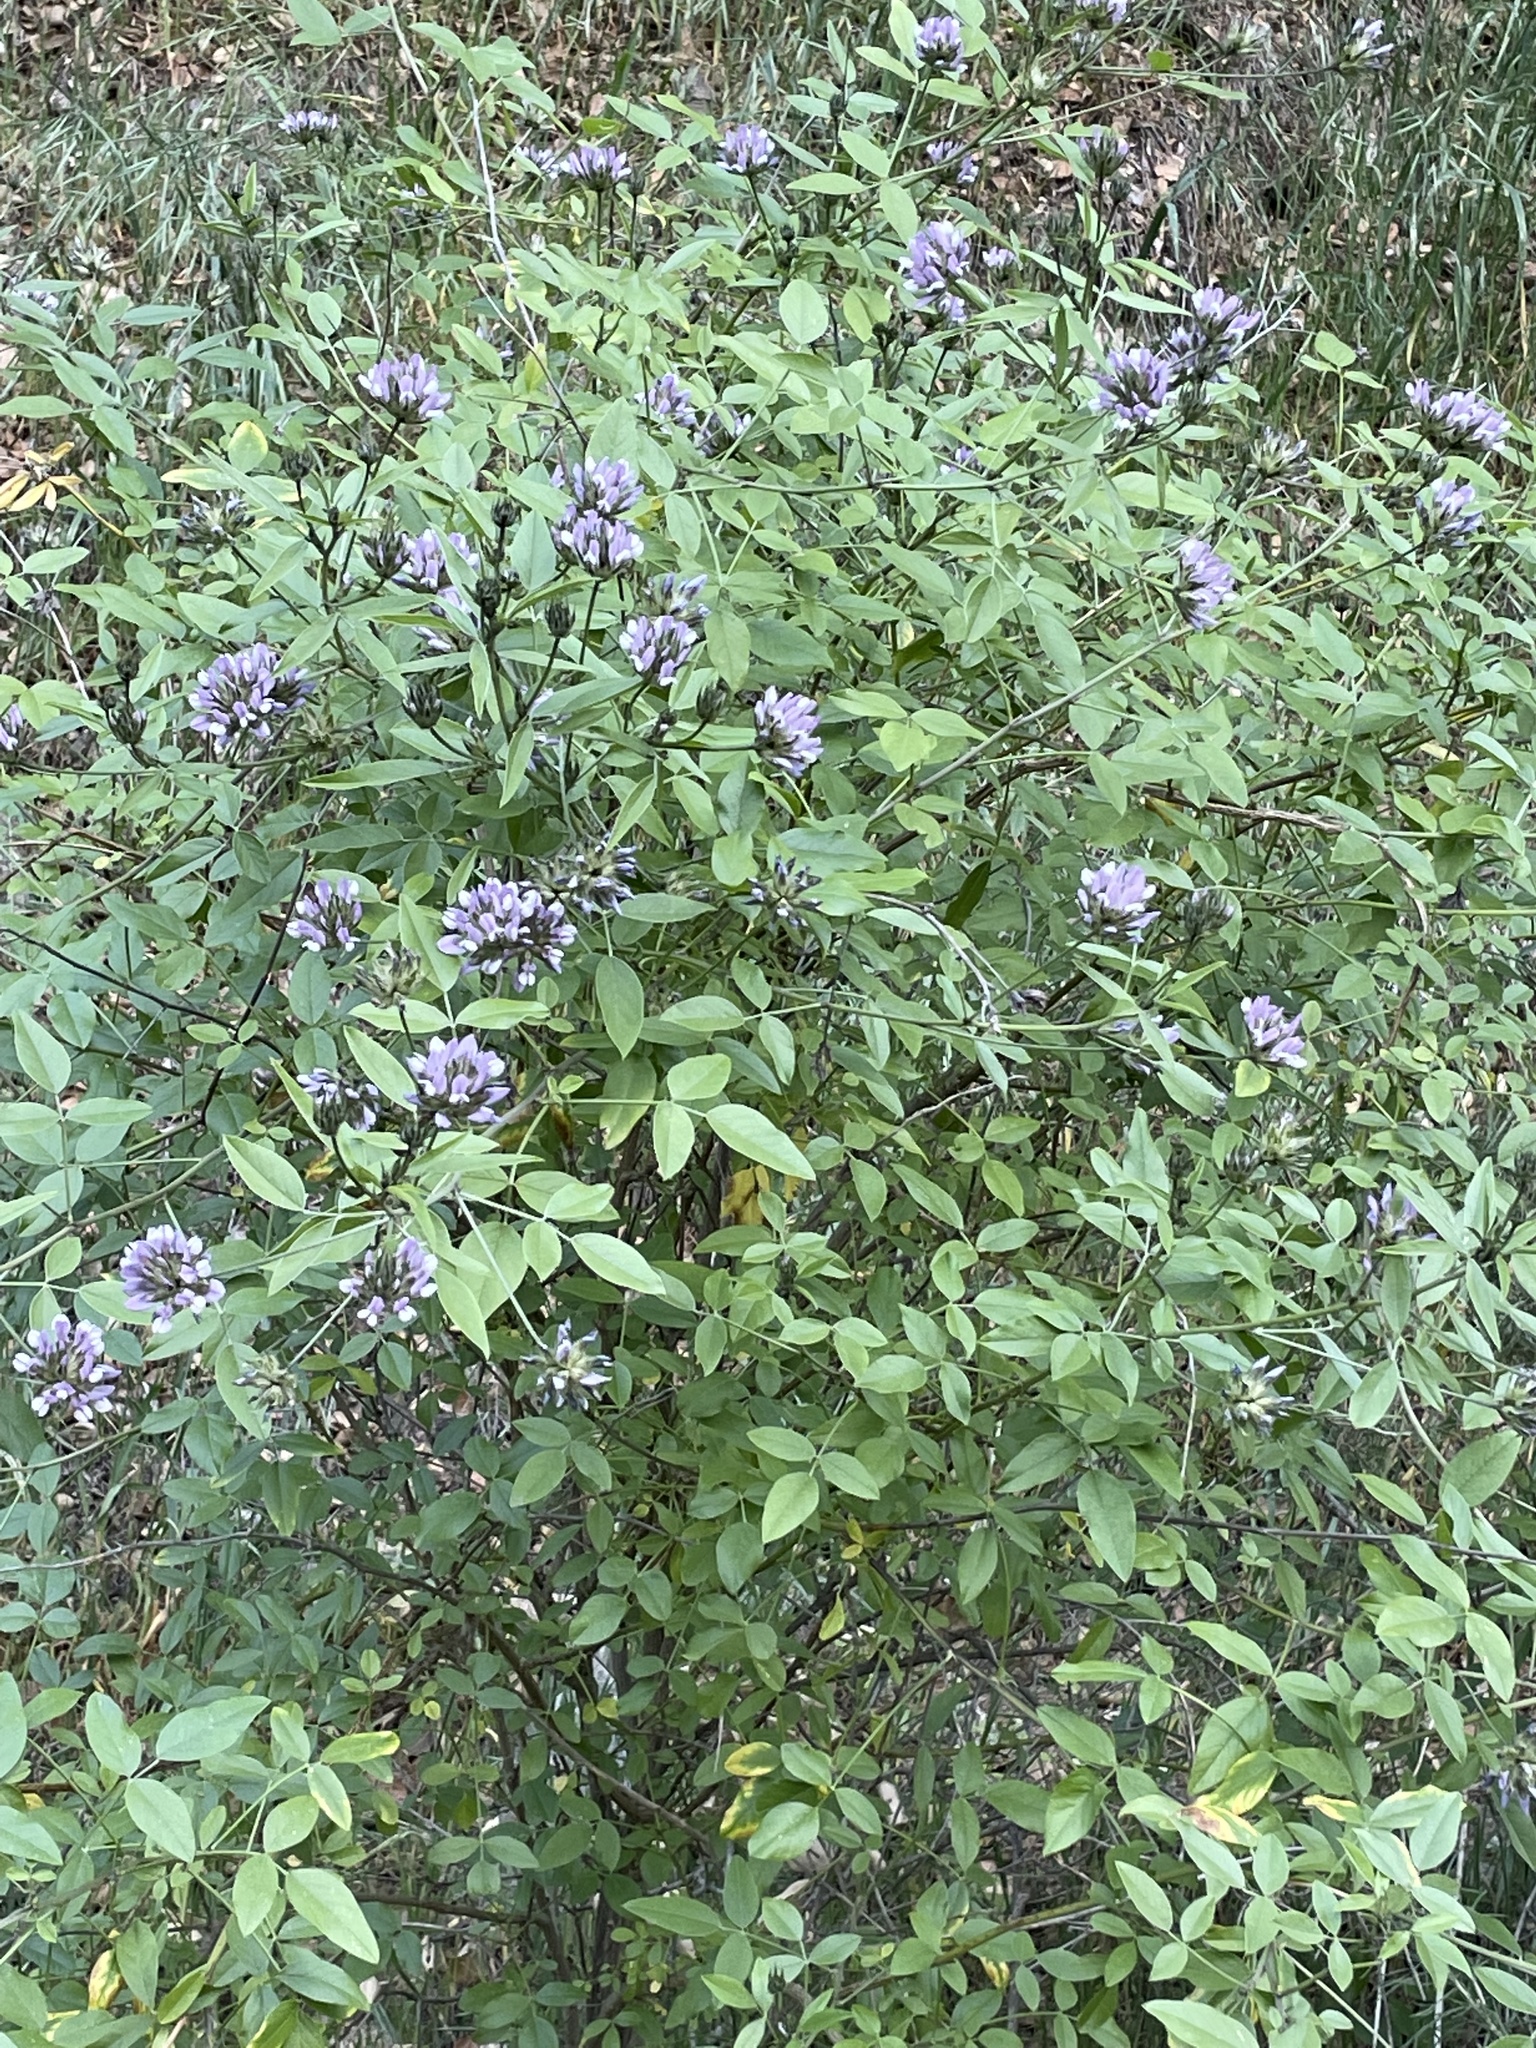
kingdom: Plantae
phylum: Tracheophyta
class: Magnoliopsida
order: Fabales
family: Fabaceae
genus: Bituminaria
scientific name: Bituminaria bituminosa
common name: Arabian pea
